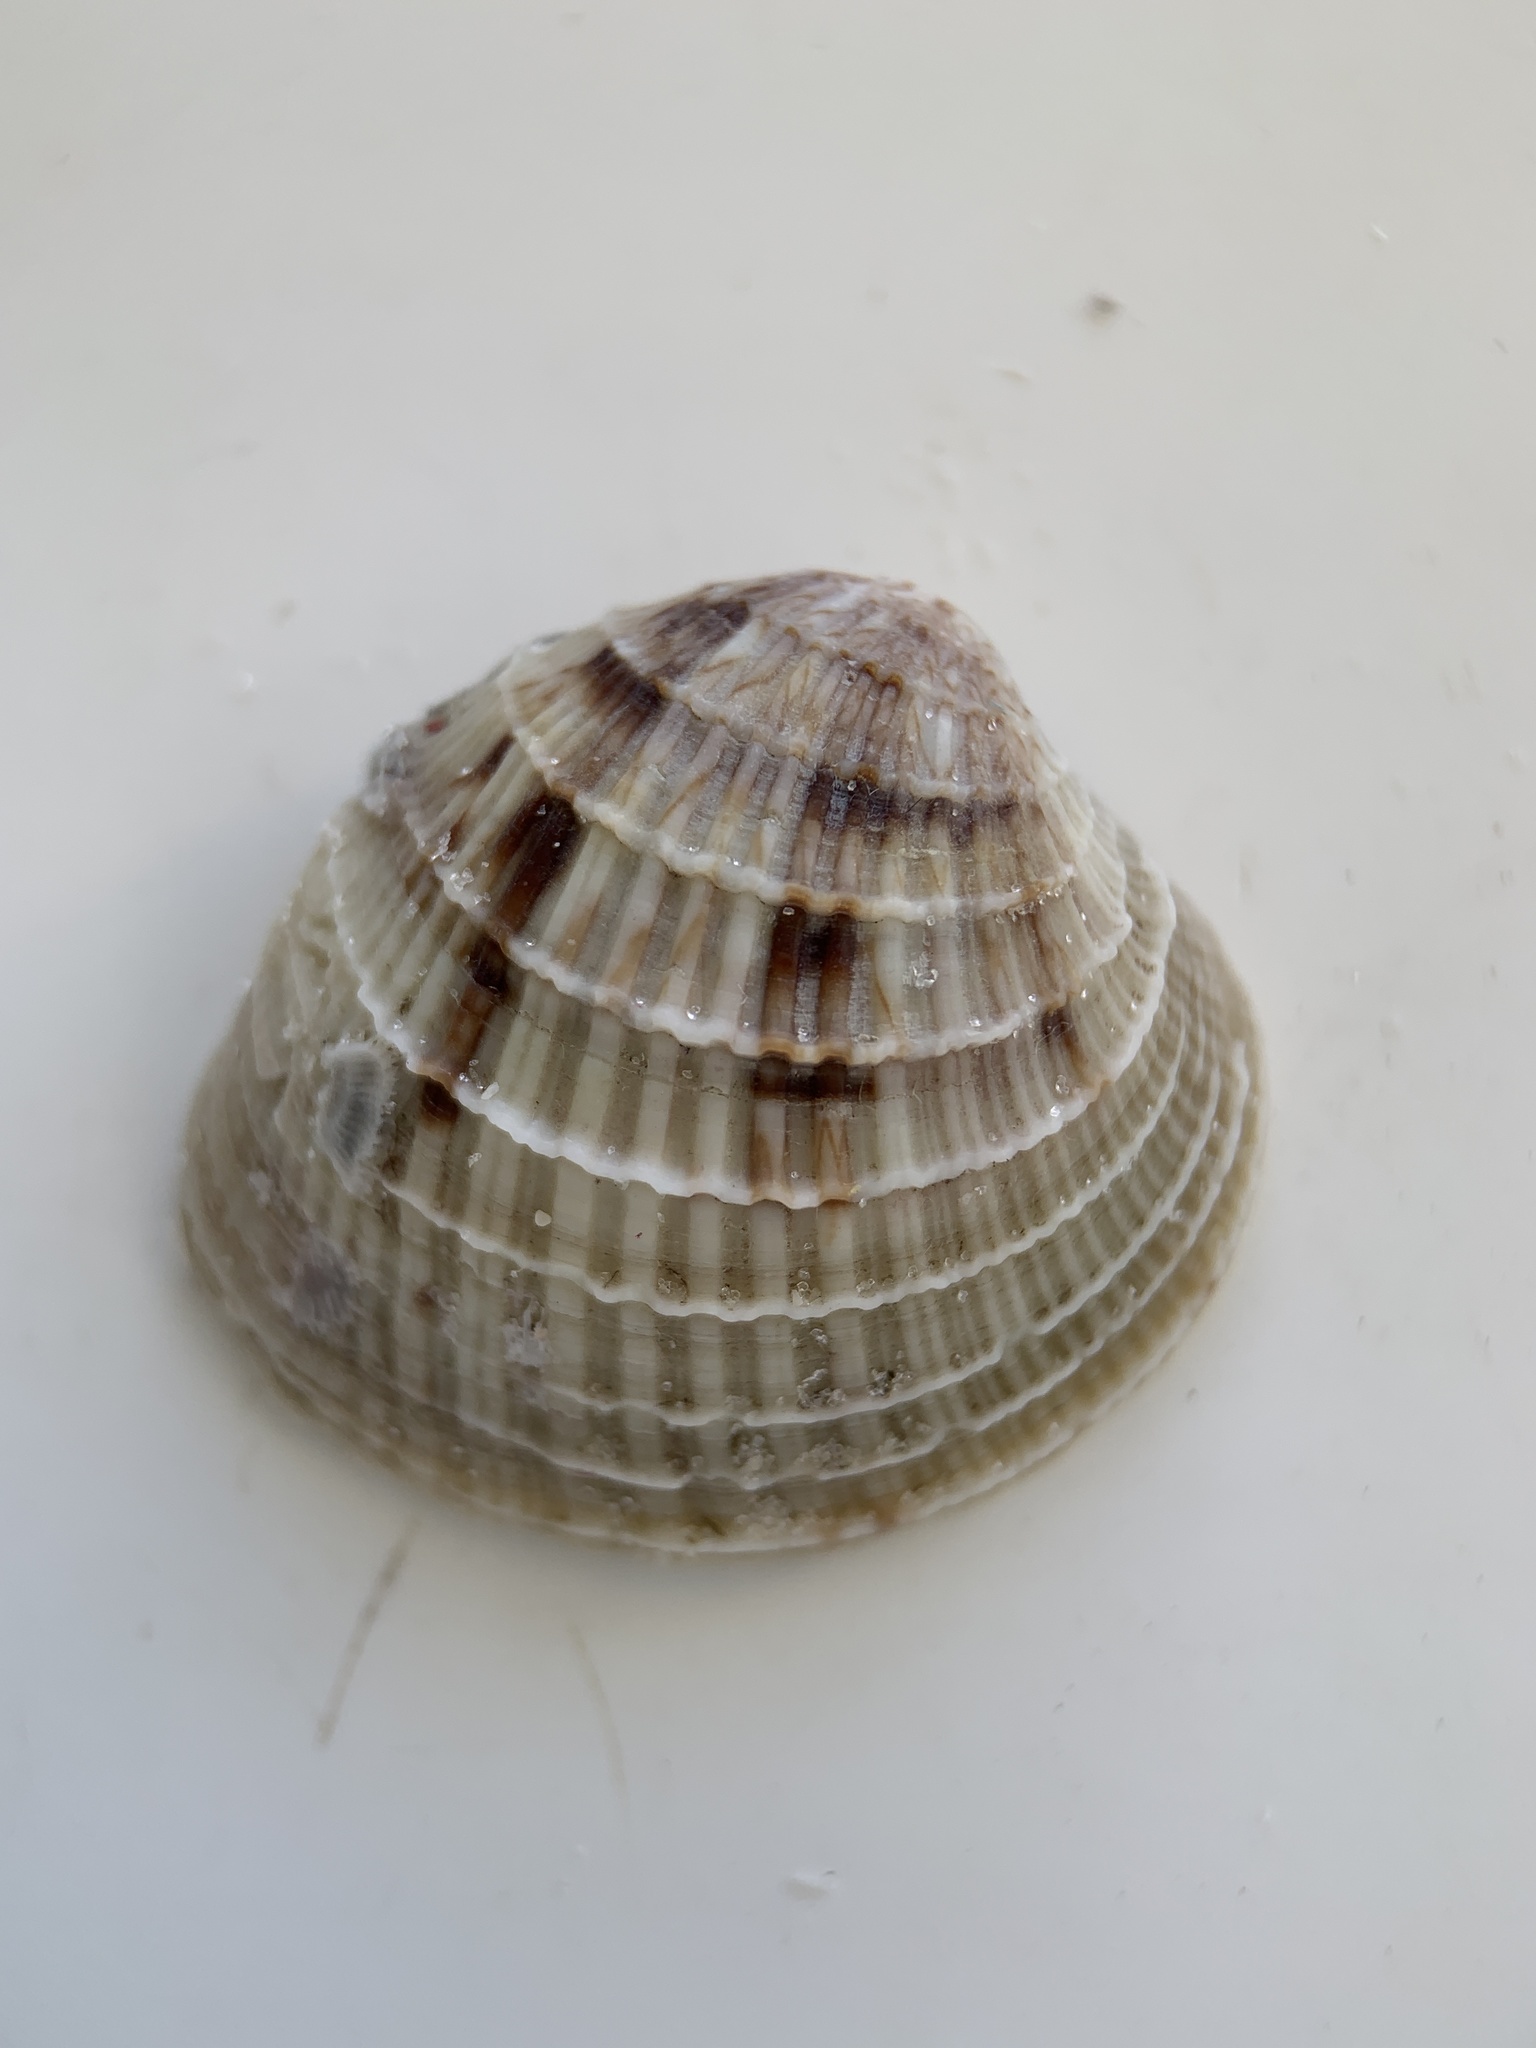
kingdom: Animalia
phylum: Mollusca
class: Bivalvia
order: Venerida
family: Veneridae
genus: Chione
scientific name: Chione elevata
